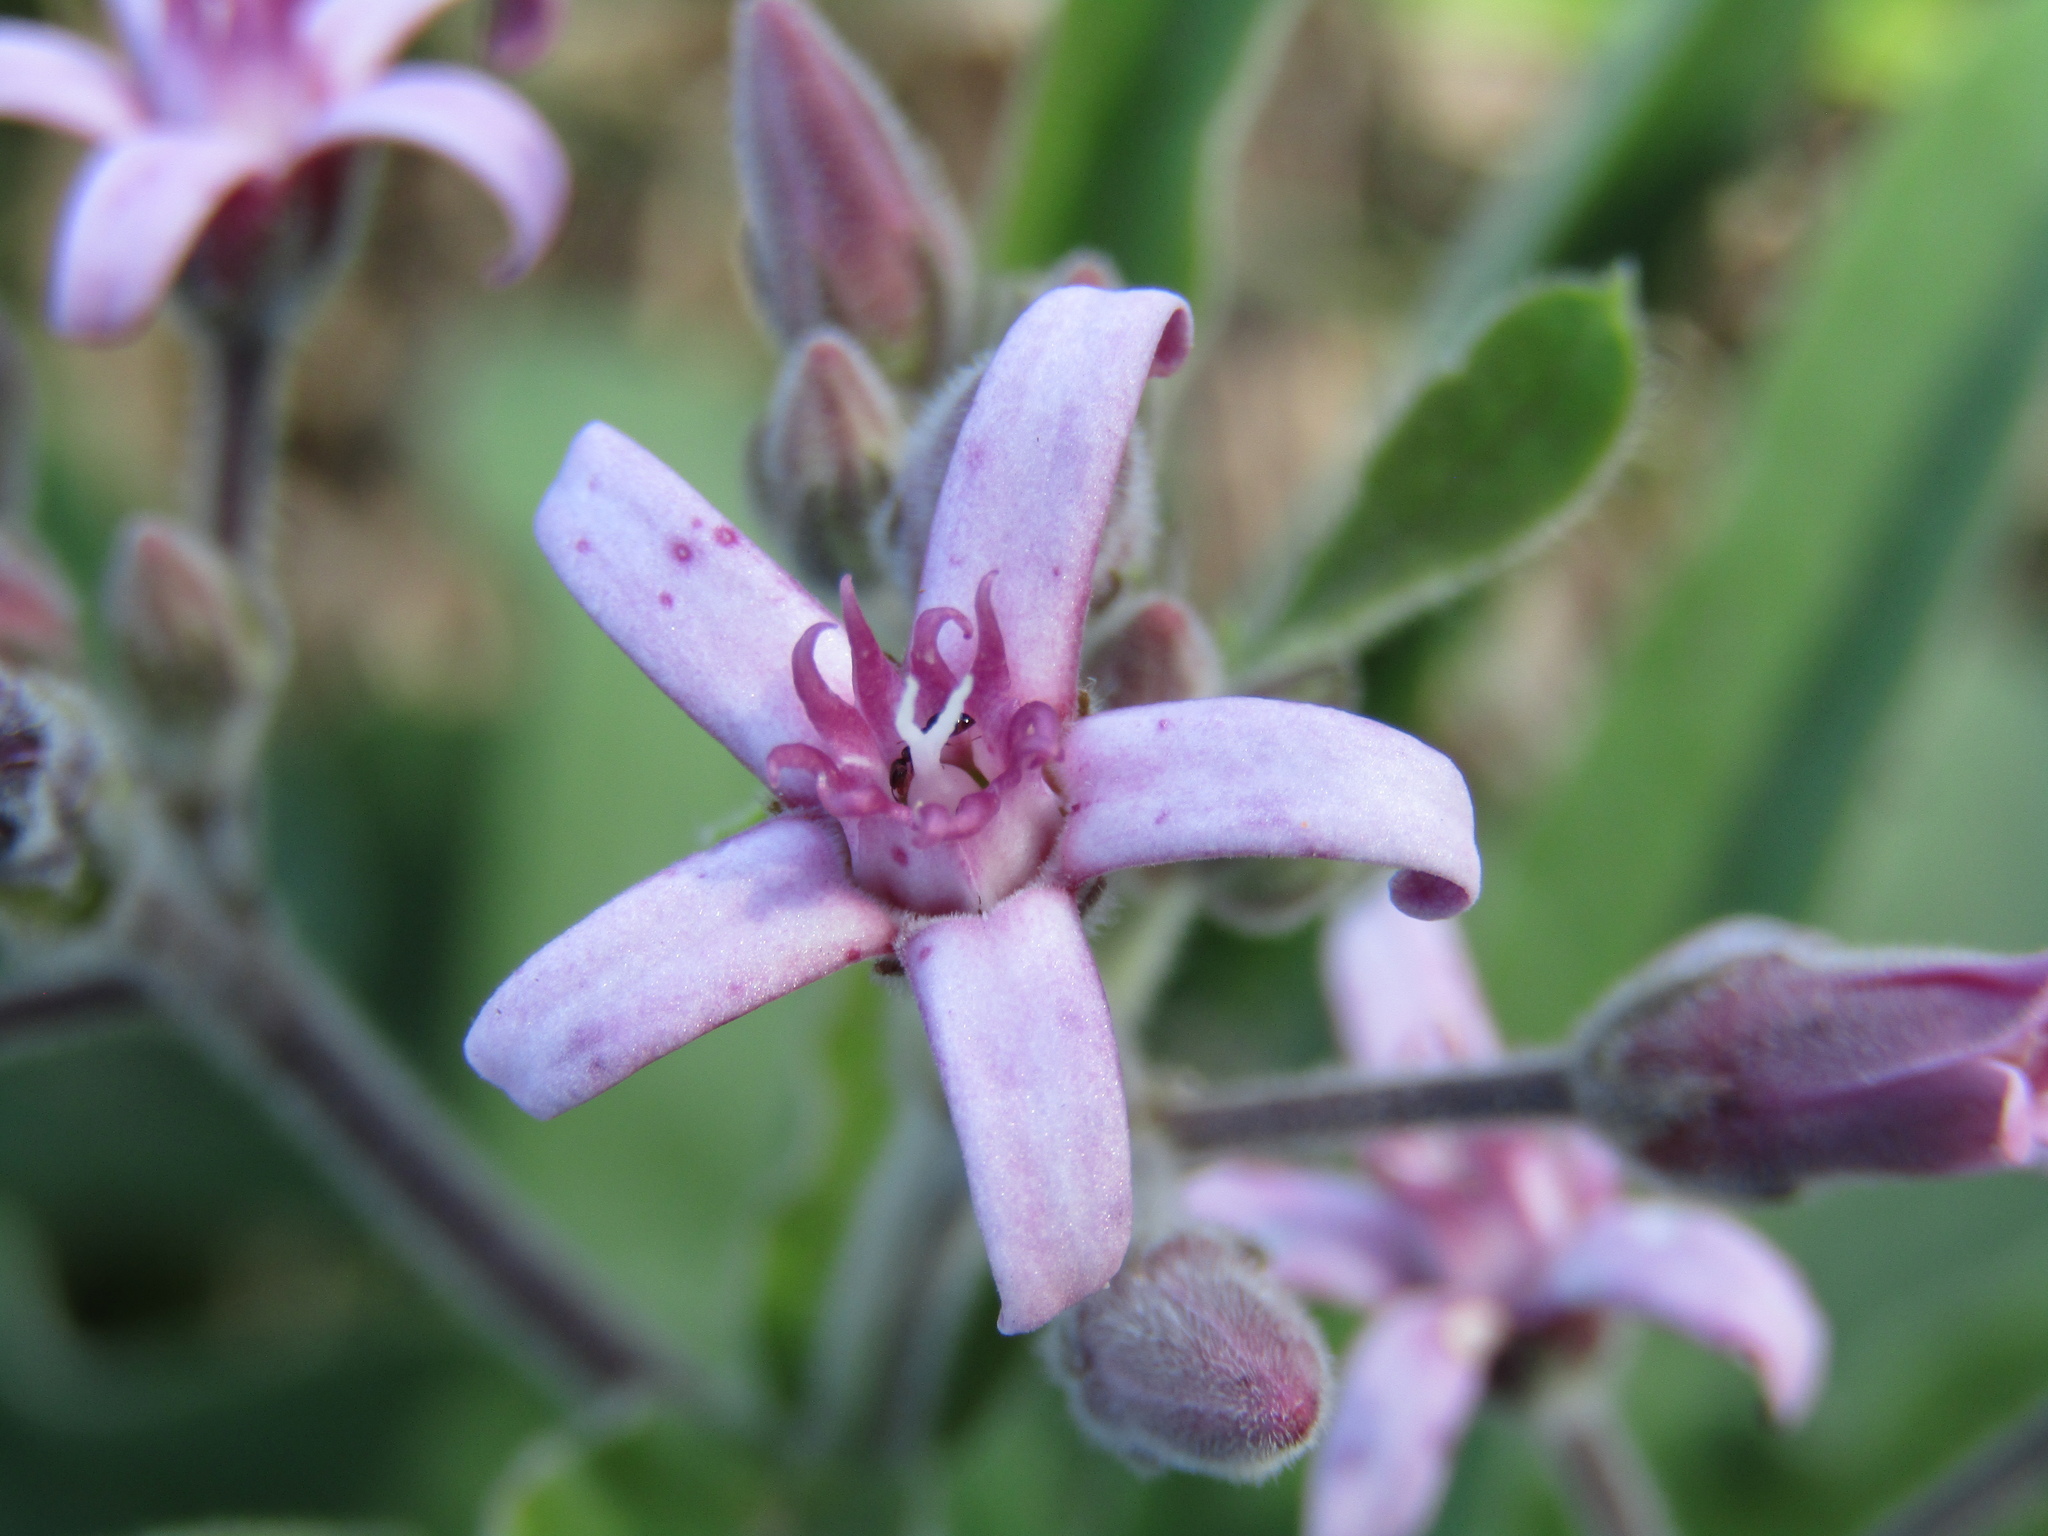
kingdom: Plantae
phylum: Tracheophyta
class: Magnoliopsida
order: Gentianales
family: Apocynaceae
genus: Oxypetalum
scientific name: Oxypetalum solanoides
